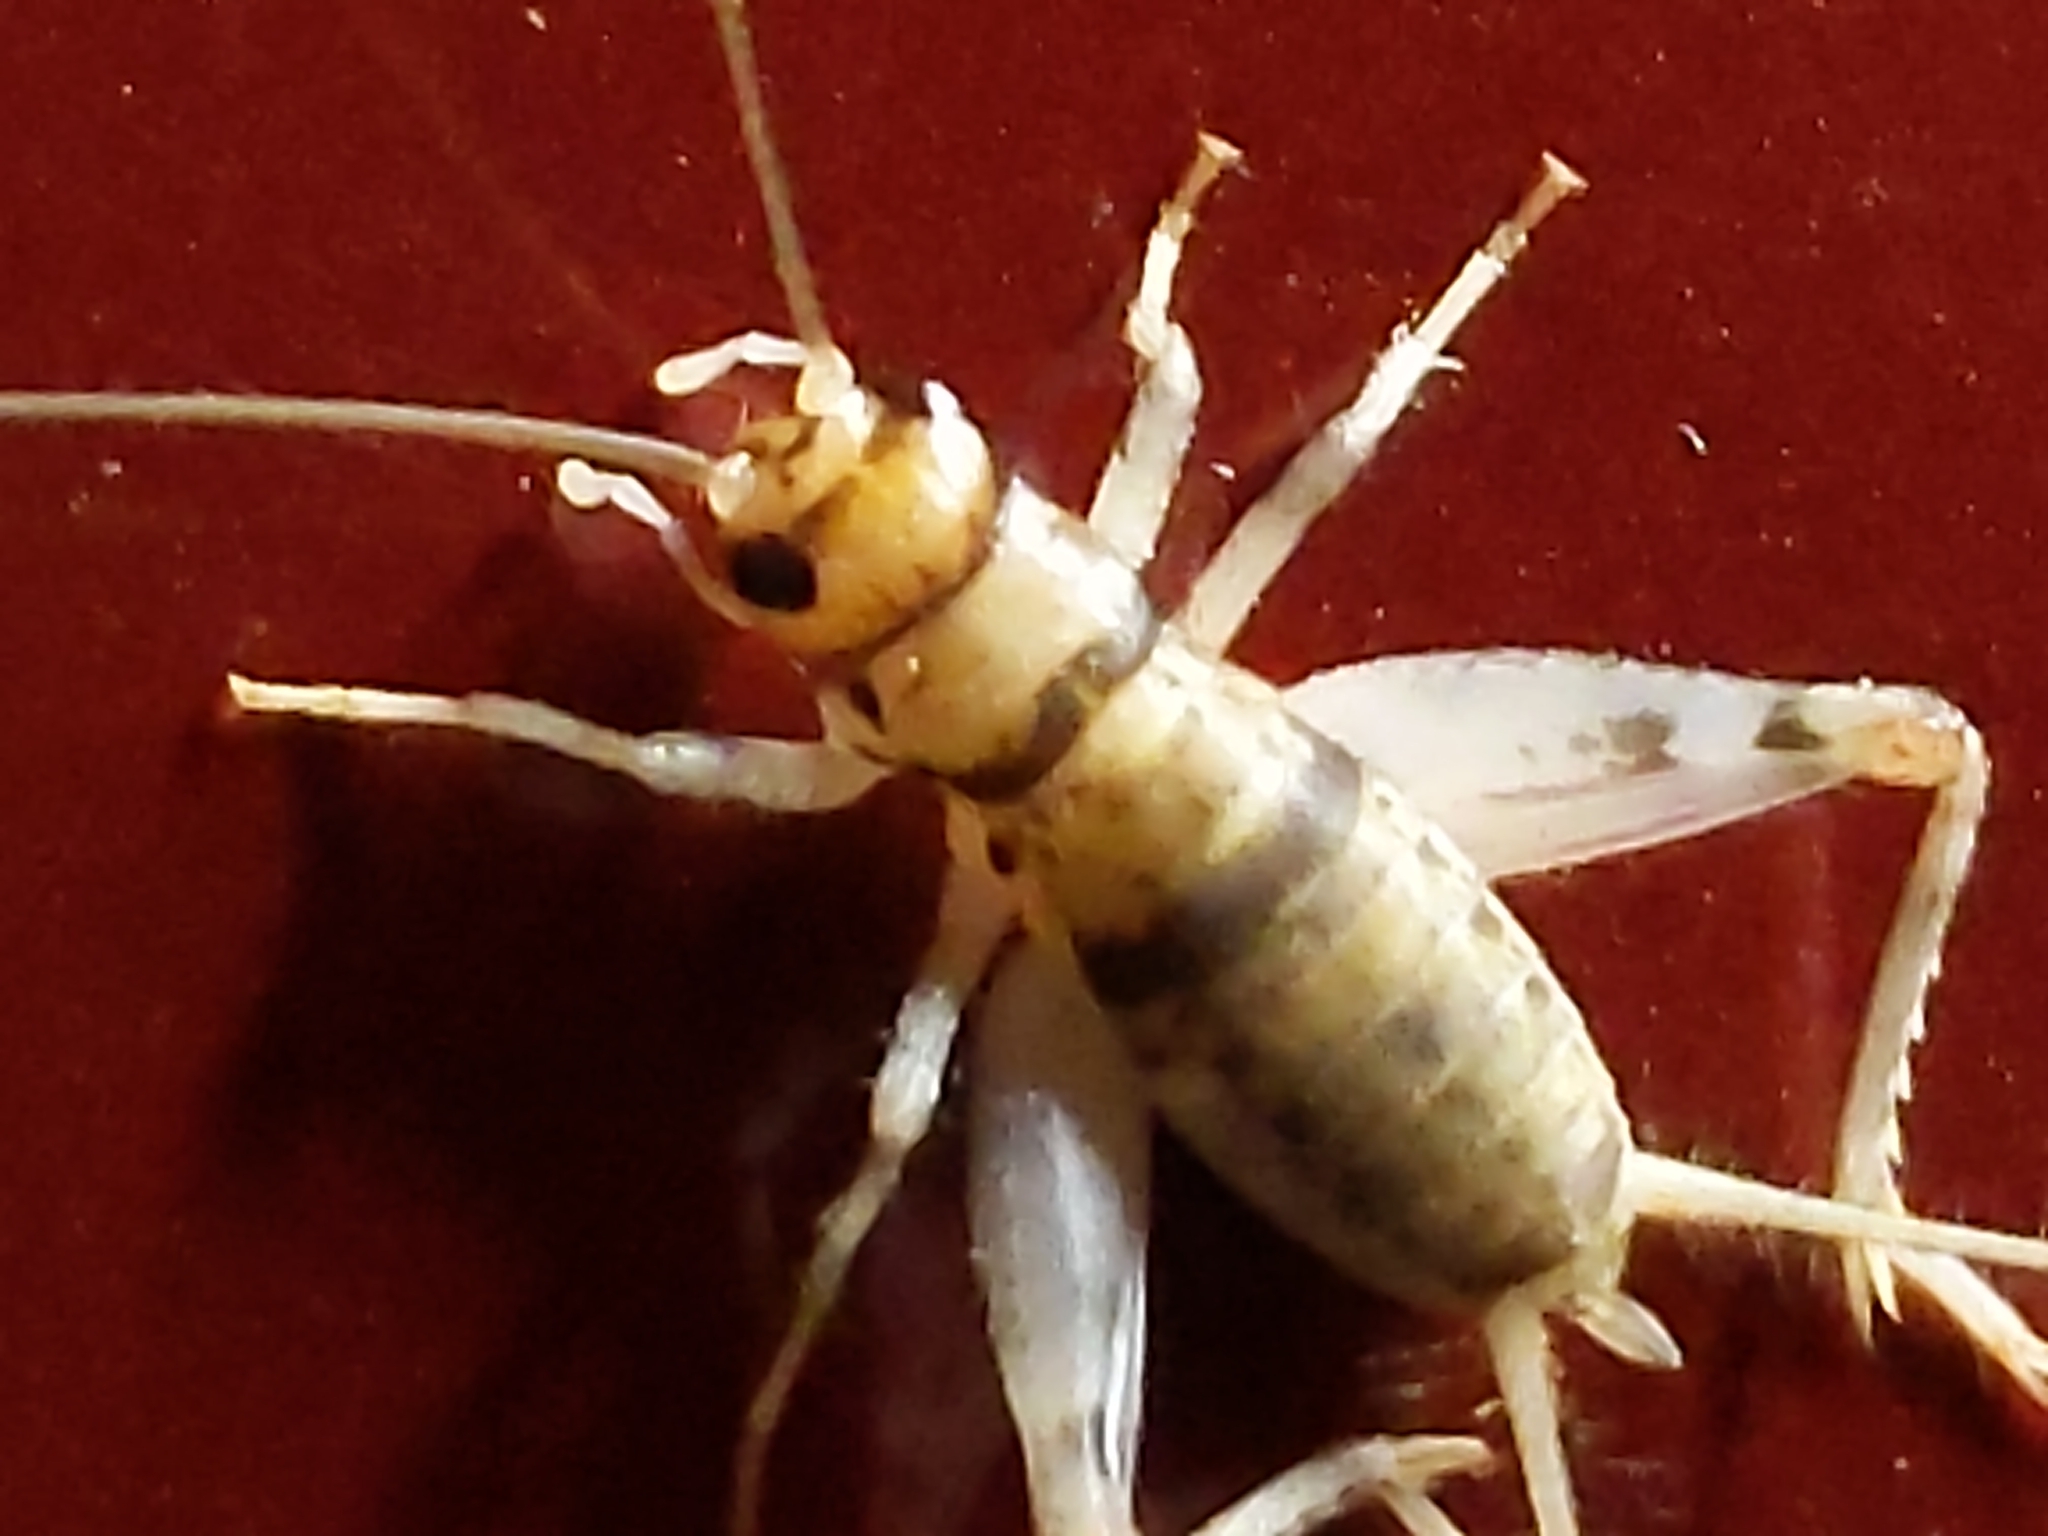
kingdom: Animalia
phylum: Arthropoda
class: Insecta
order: Orthoptera
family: Gryllidae
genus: Gryllodes
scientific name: Gryllodes sigillatus
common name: Tropical house cricket
